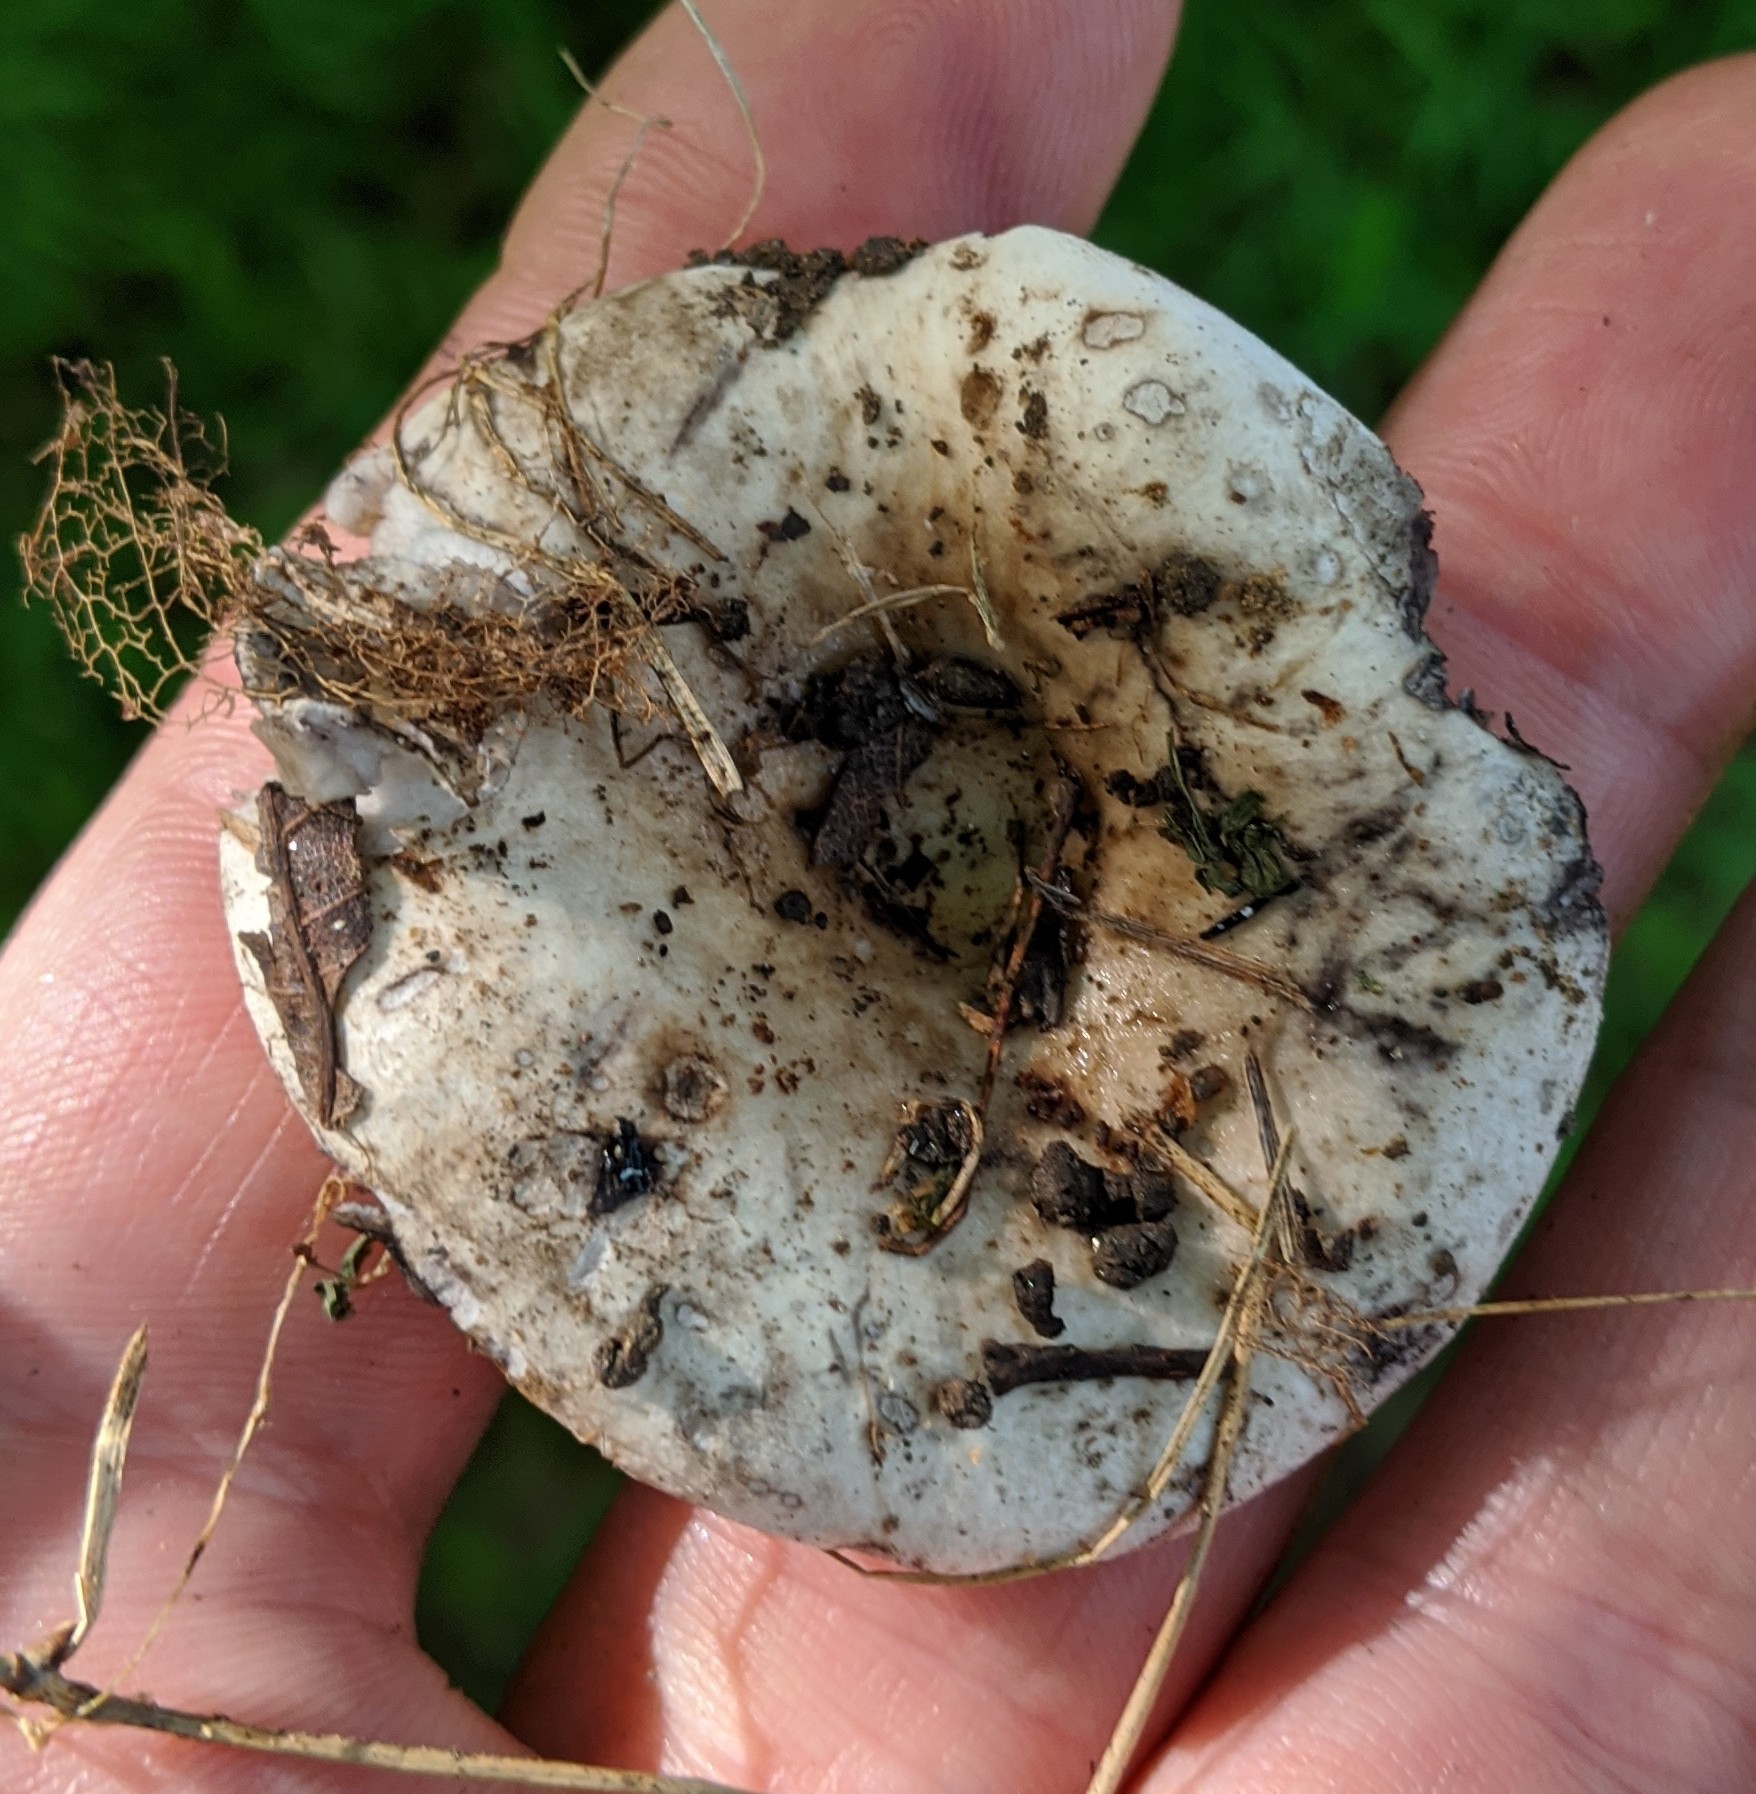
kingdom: Fungi
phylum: Basidiomycota
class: Agaricomycetes
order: Russulales
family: Russulaceae
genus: Russula
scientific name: Russula densifolia
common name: Crowded brittlegill
